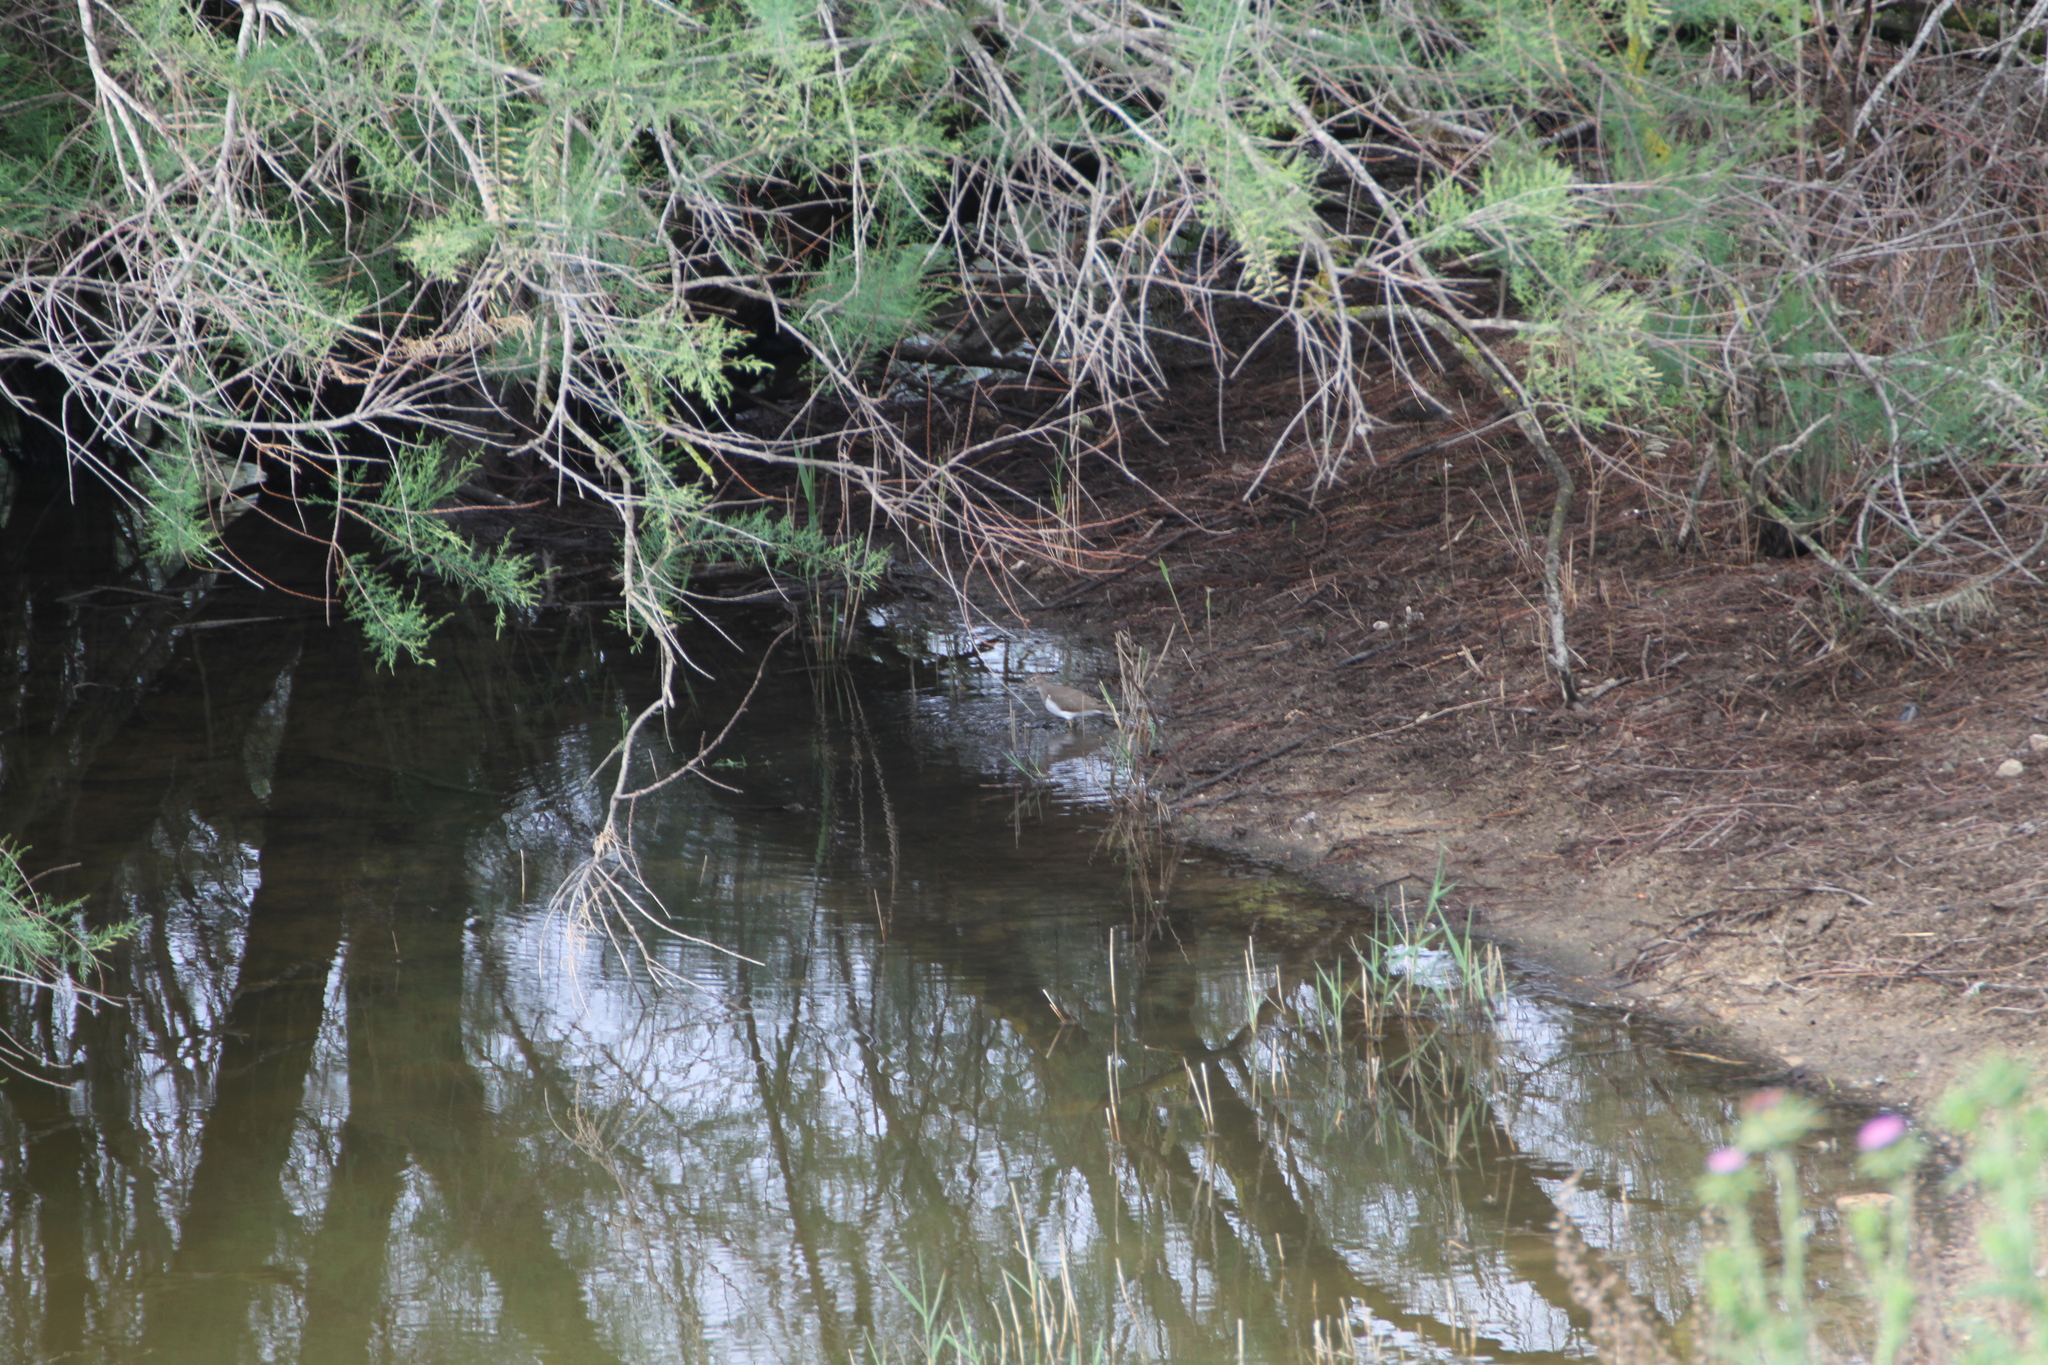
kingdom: Animalia
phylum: Chordata
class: Aves
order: Charadriiformes
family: Scolopacidae
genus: Actitis
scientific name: Actitis hypoleucos
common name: Common sandpiper
